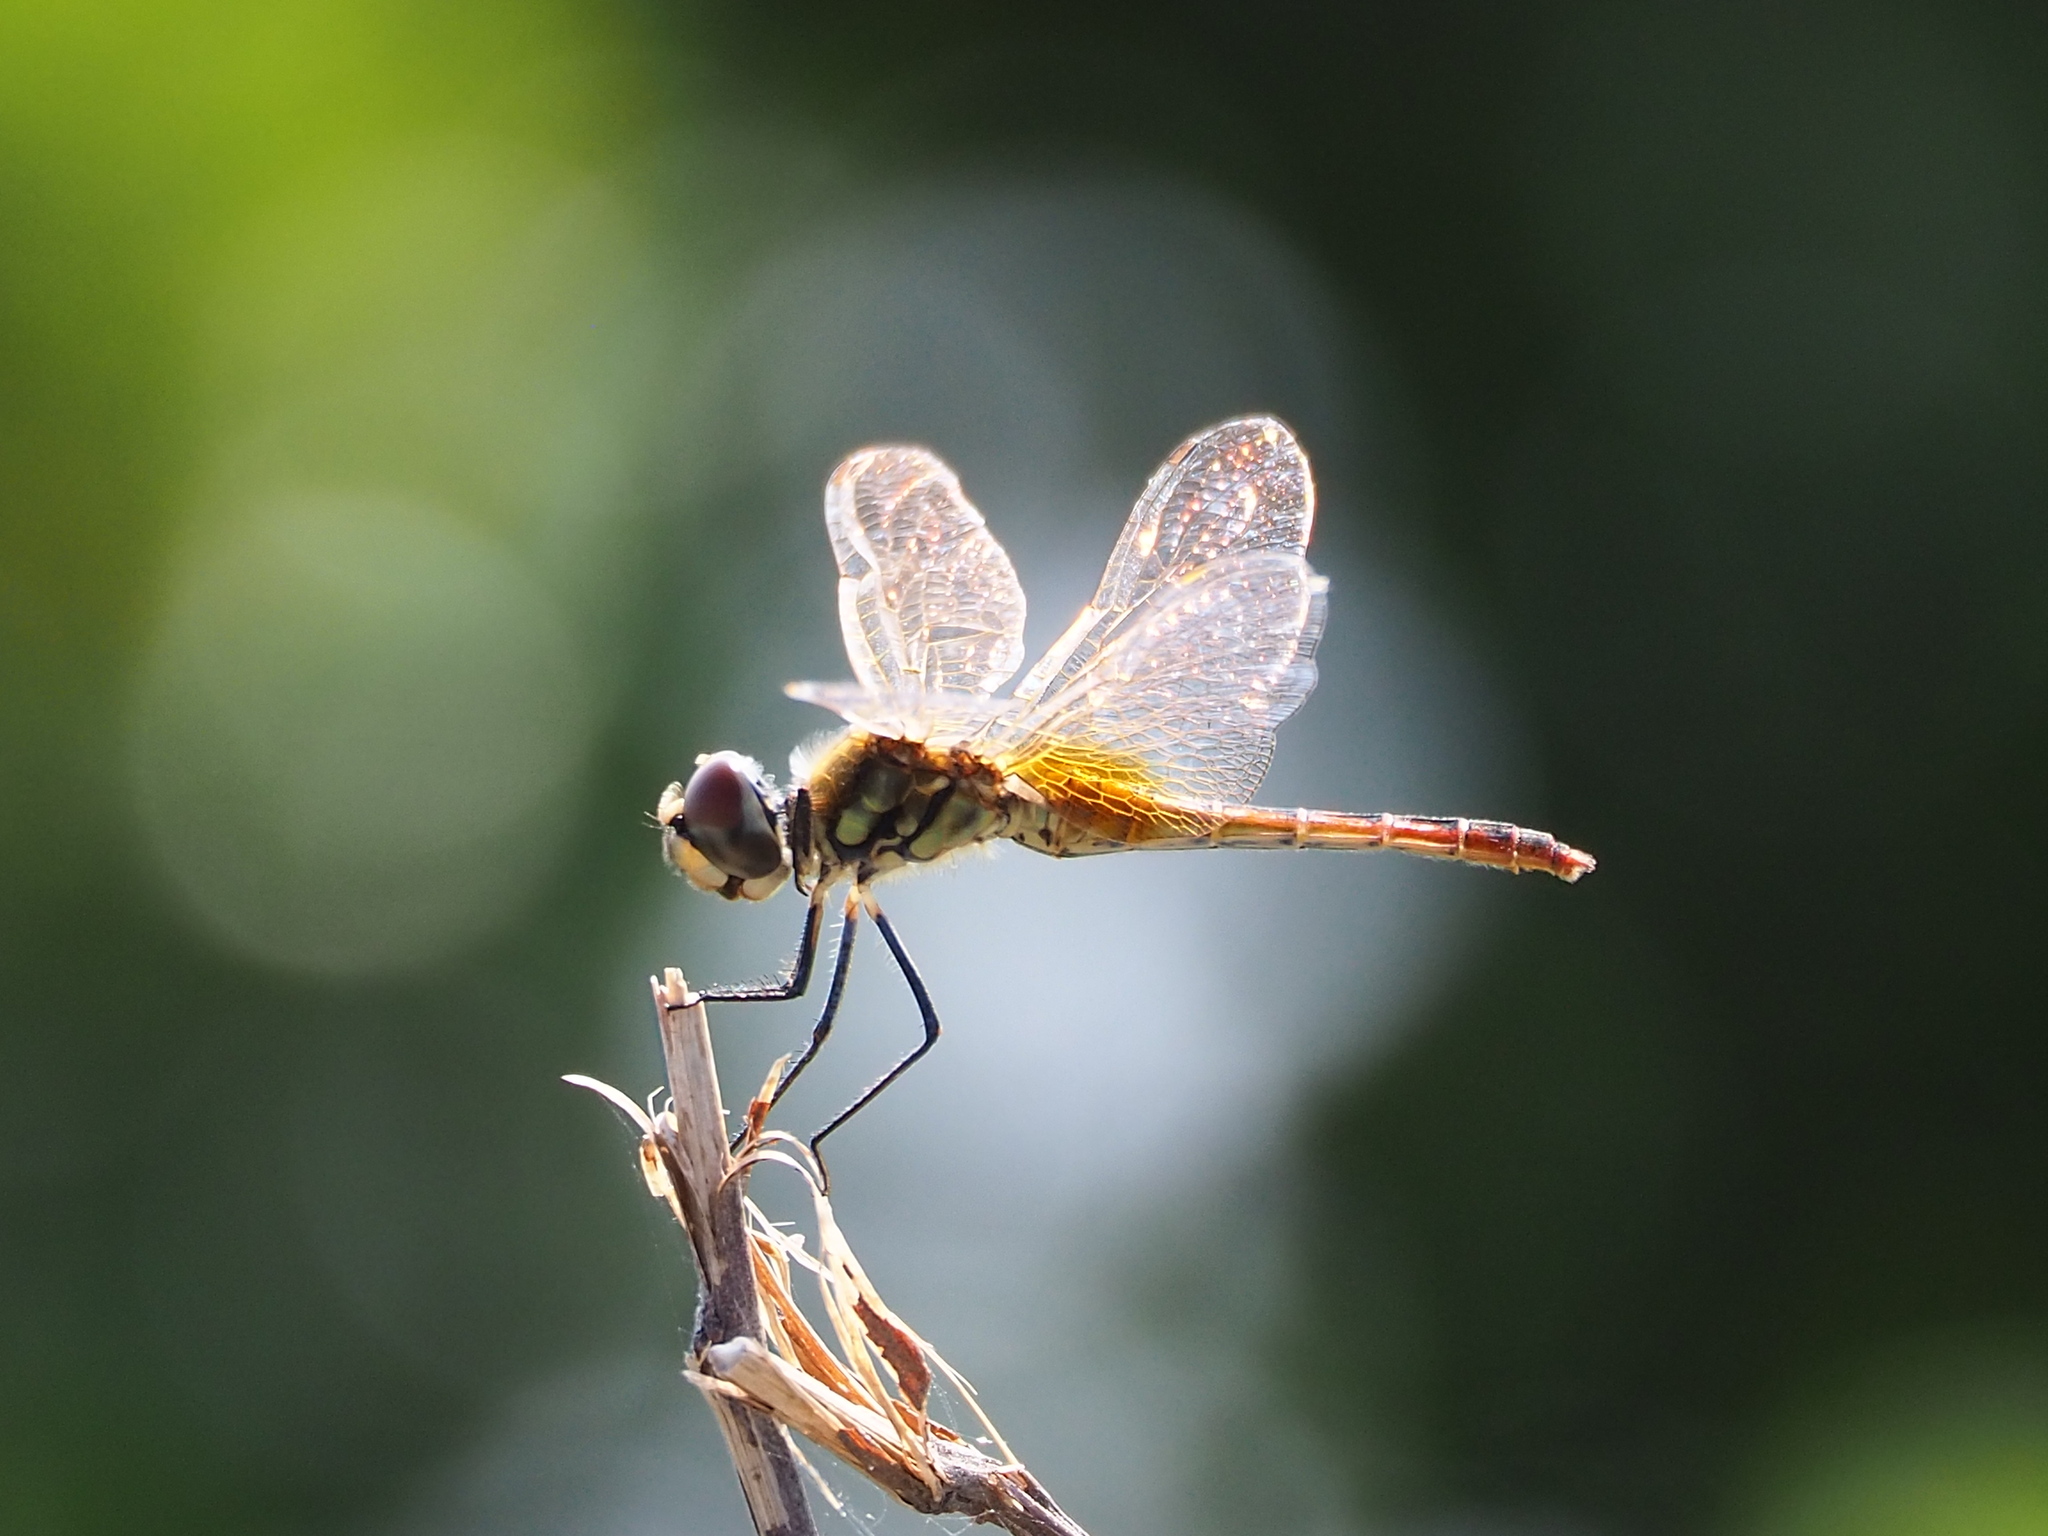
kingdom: Animalia
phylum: Arthropoda
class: Insecta
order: Odonata
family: Libellulidae
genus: Macrodiplax
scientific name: Macrodiplax cora
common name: Coastal glider
